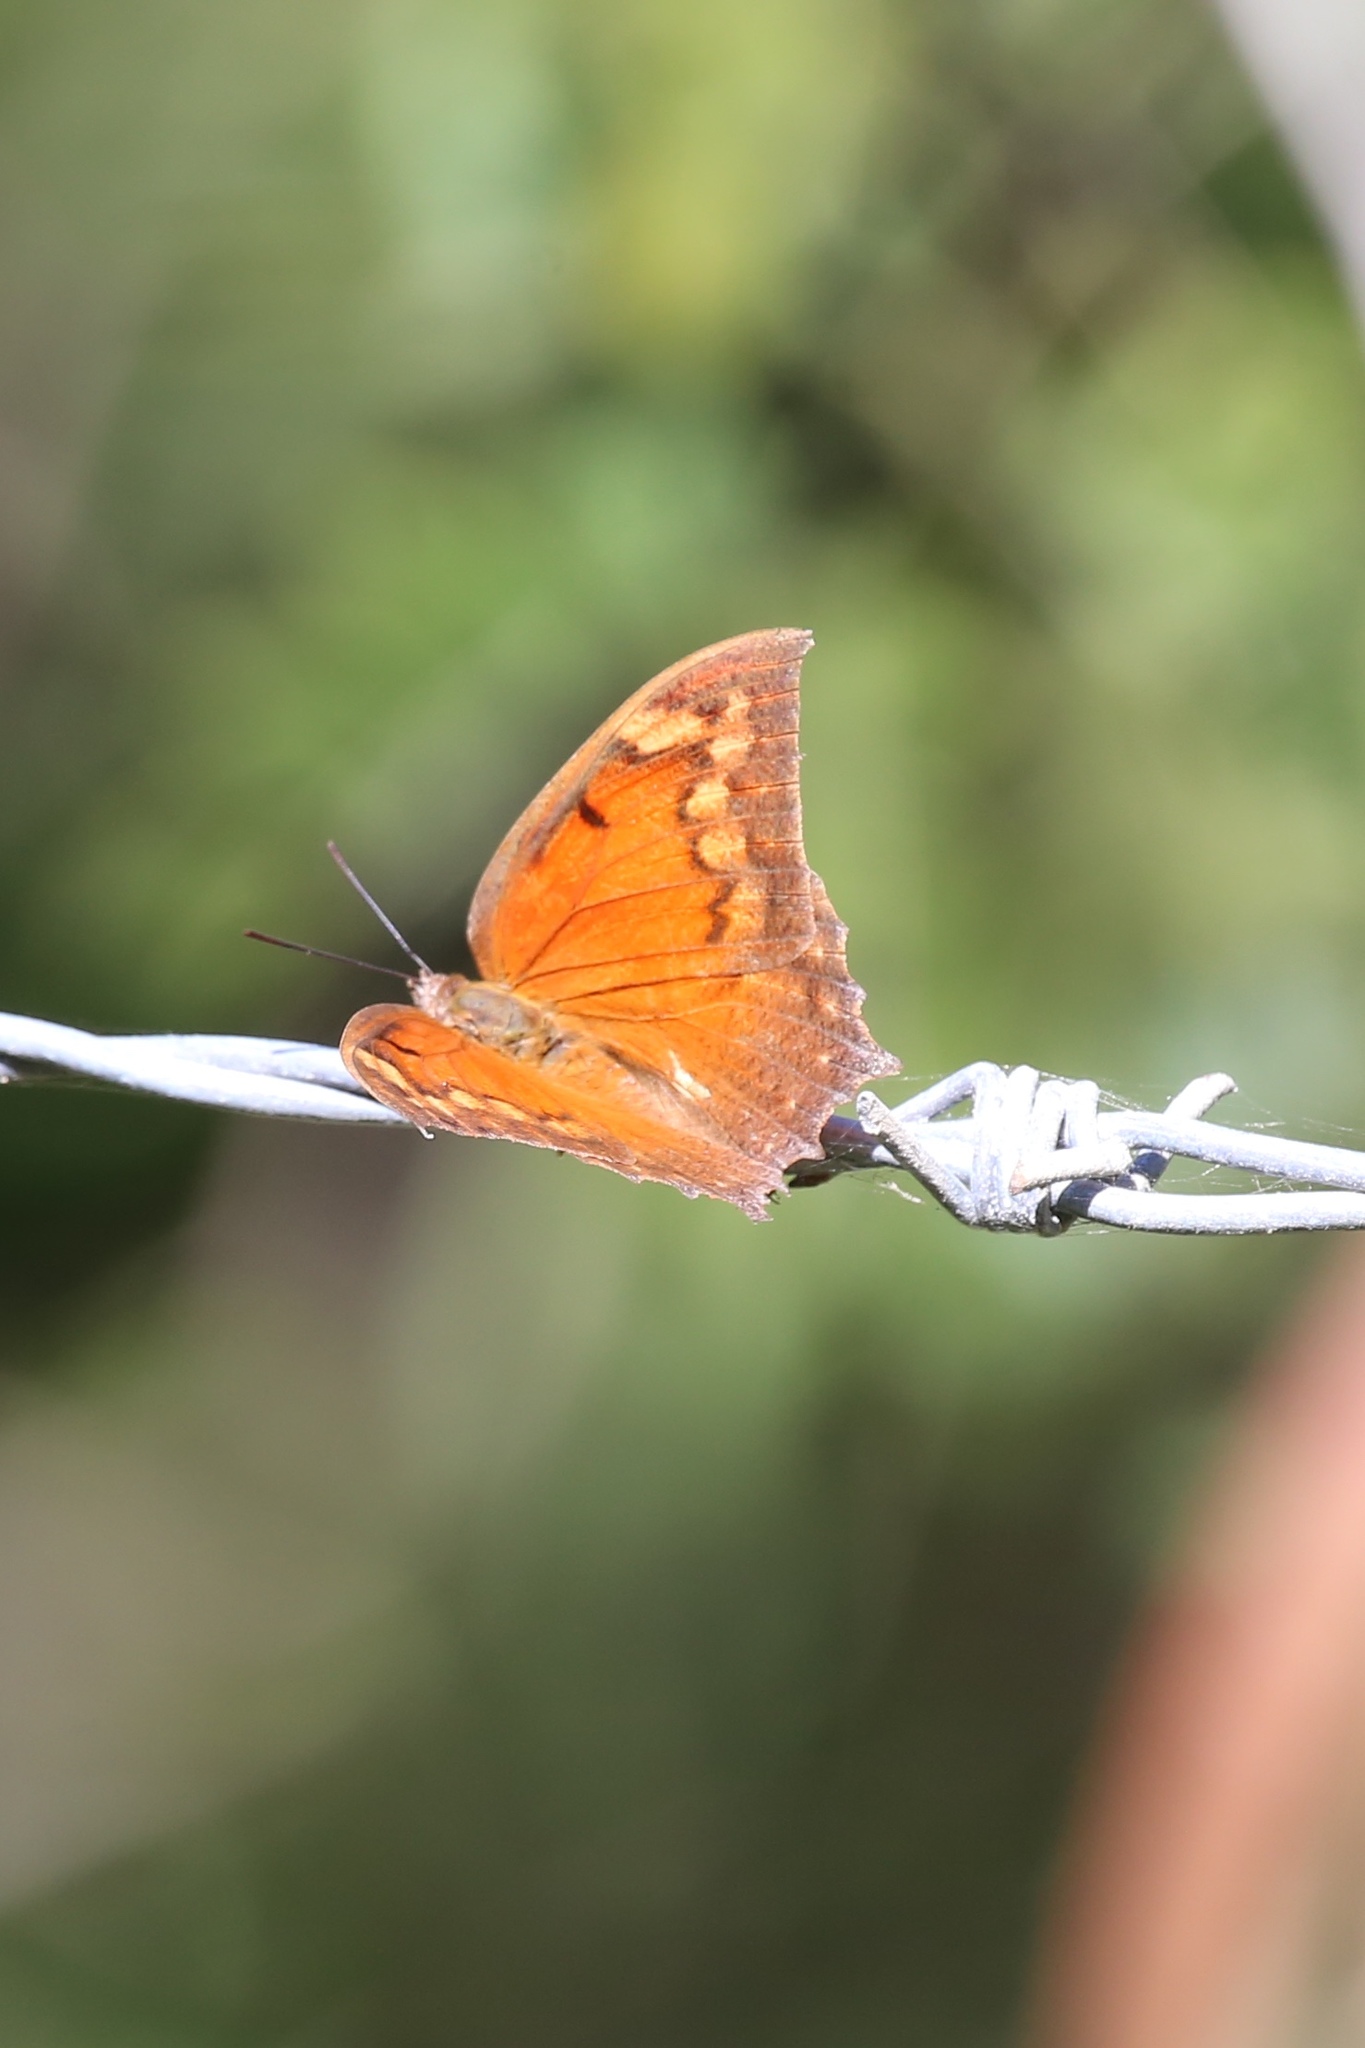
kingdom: Animalia
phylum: Arthropoda
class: Insecta
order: Lepidoptera
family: Nymphalidae
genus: Anaea
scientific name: Anaea aidea
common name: Tropical leafwing
